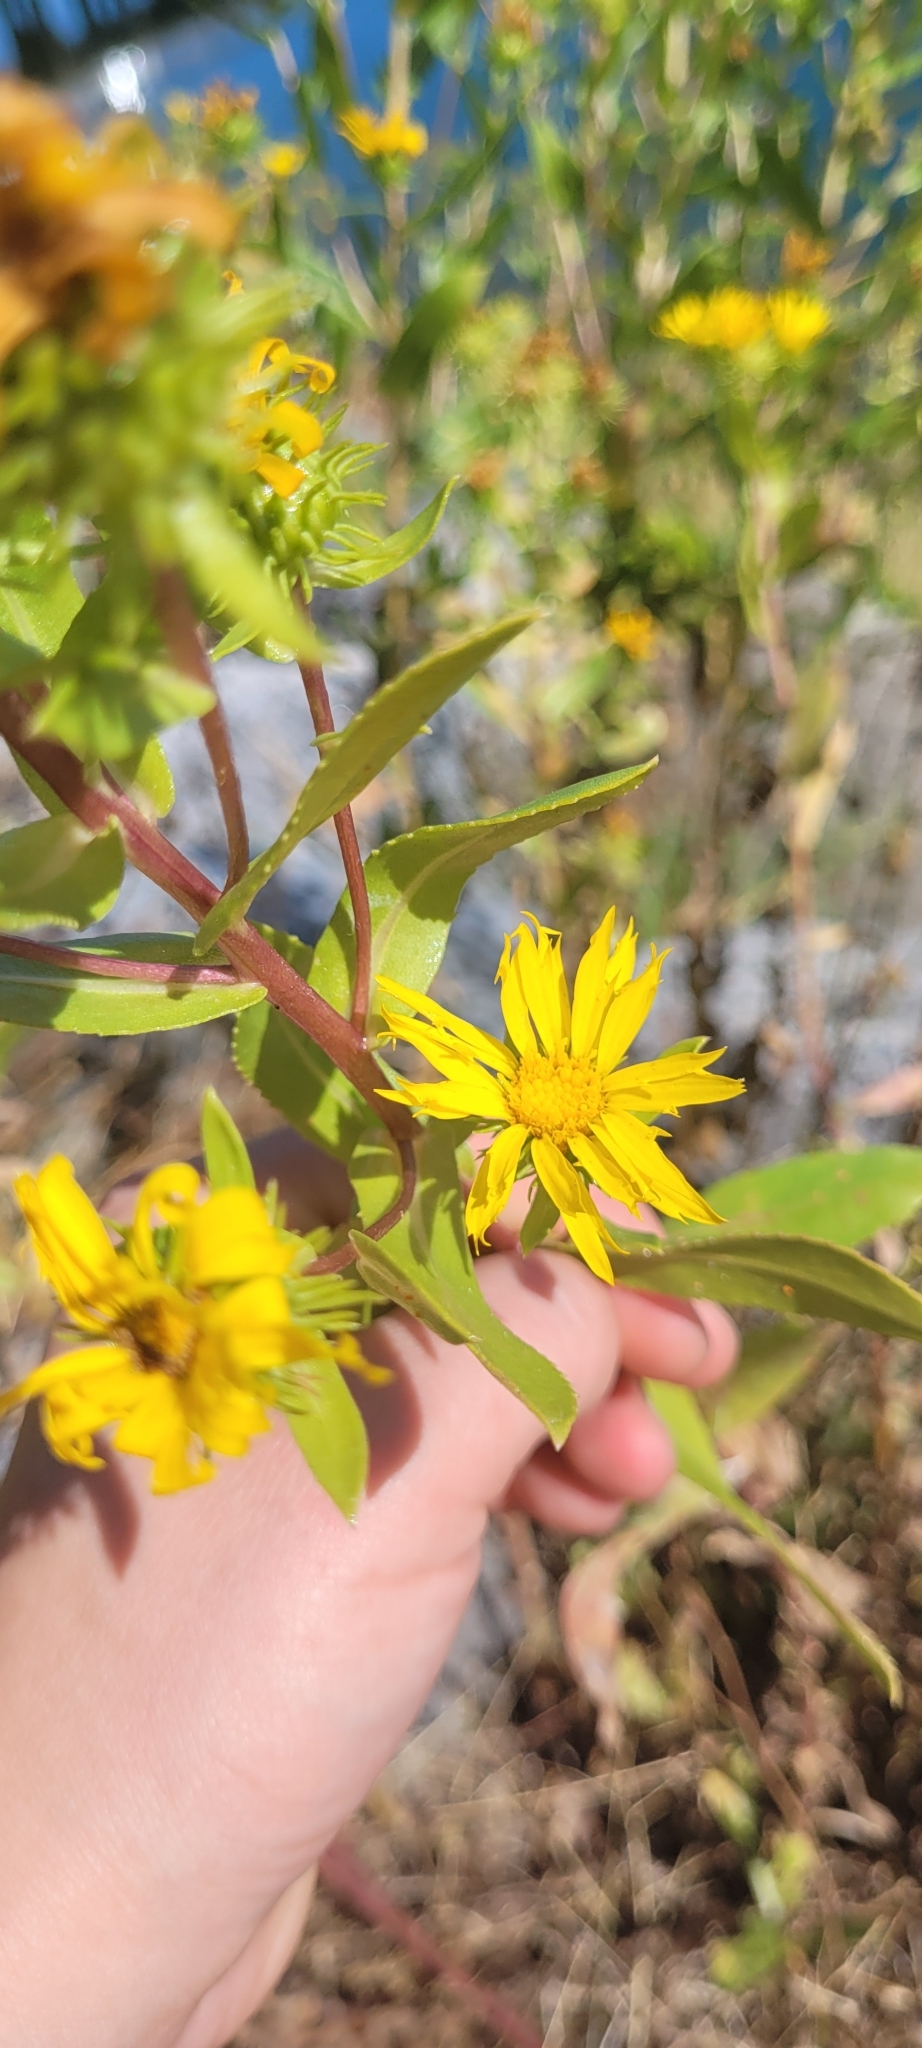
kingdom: Plantae
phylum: Tracheophyta
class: Magnoliopsida
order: Asterales
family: Asteraceae
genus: Grindelia
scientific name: Grindelia hirsutula
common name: Hairy gumweed
